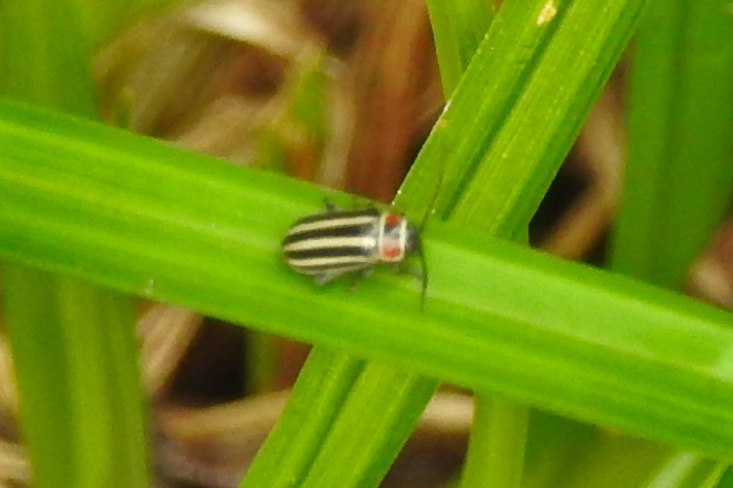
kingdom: Animalia
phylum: Arthropoda
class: Insecta
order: Coleoptera
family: Chrysomelidae
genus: Disonycha
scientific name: Disonycha pensylvanica
